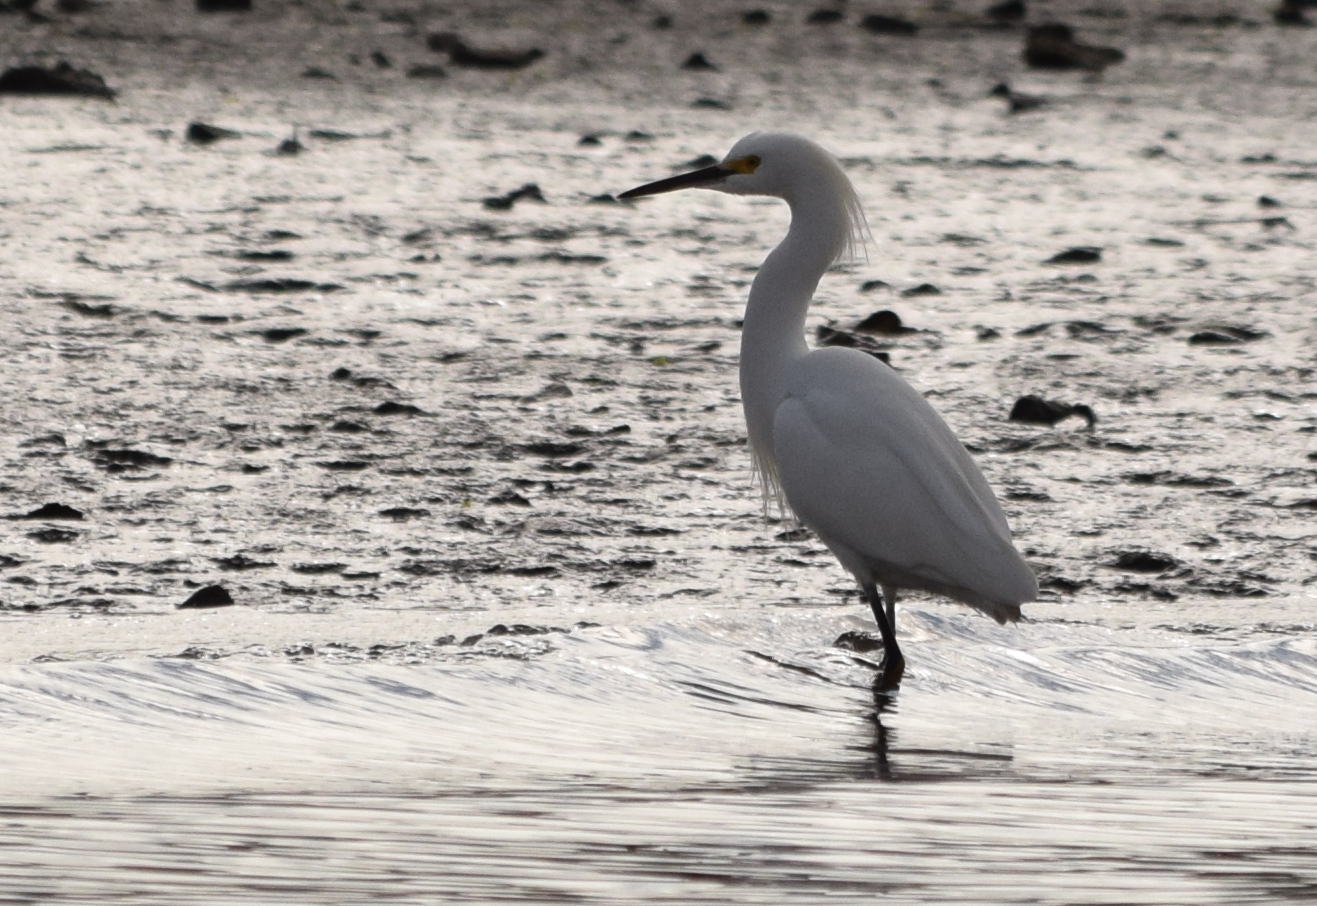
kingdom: Animalia
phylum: Chordata
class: Aves
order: Pelecaniformes
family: Ardeidae
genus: Egretta
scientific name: Egretta thula
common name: Snowy egret
